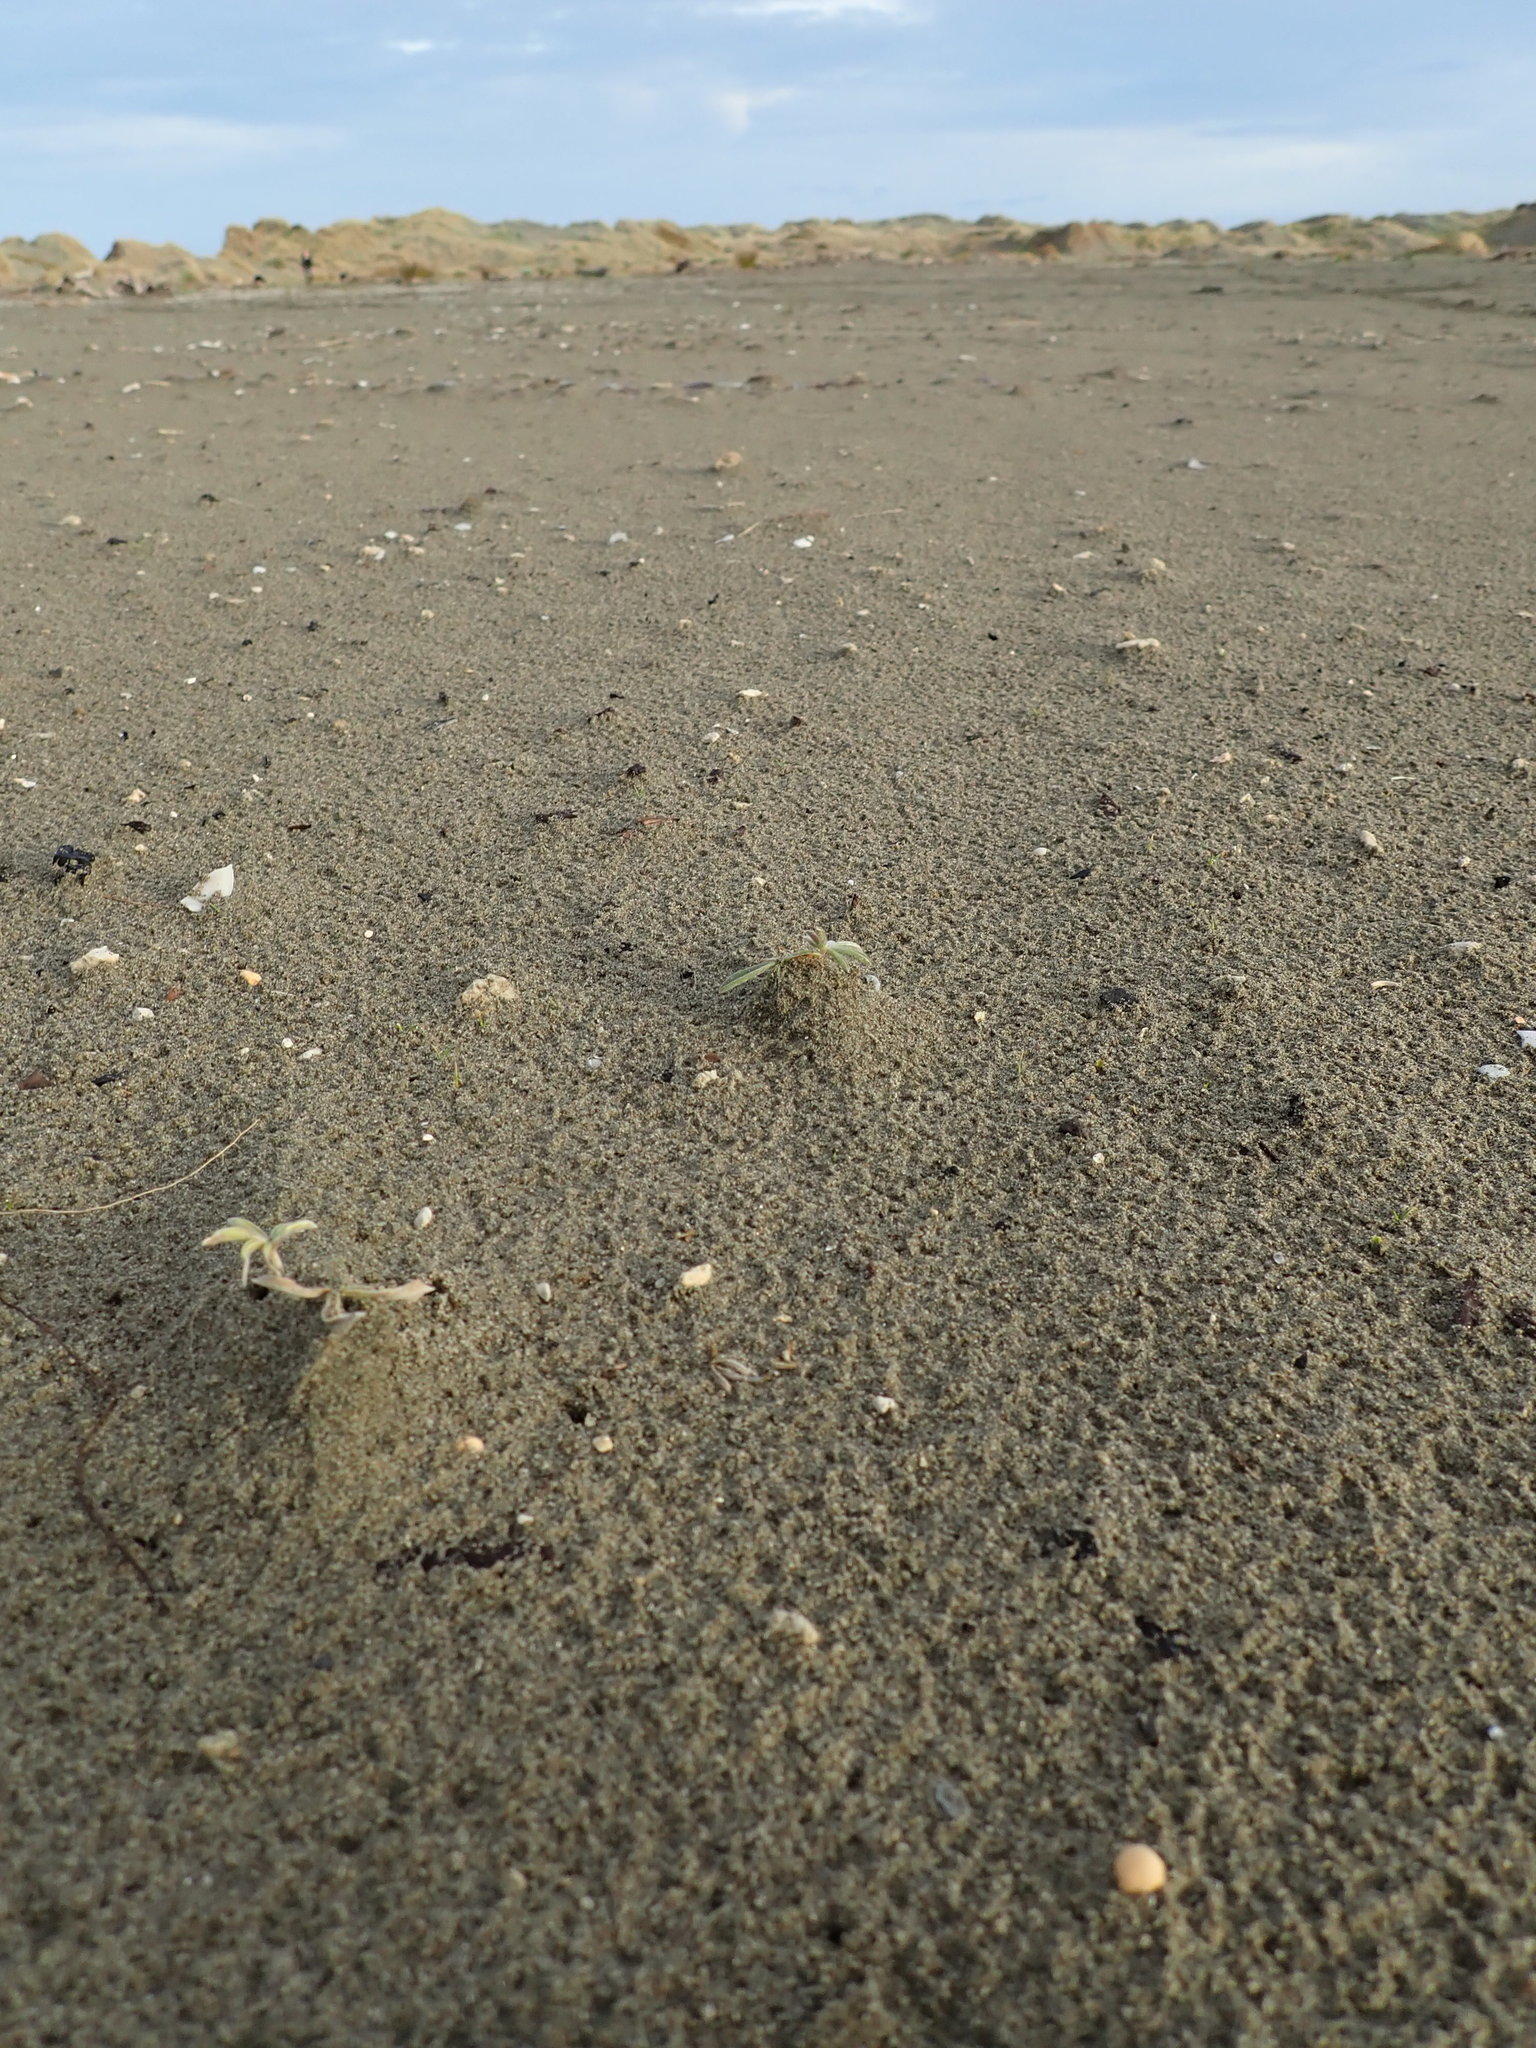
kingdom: Plantae
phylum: Tracheophyta
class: Magnoliopsida
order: Fabales
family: Fabaceae
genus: Lupinus
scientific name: Lupinus arboreus
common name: Yellow bush lupine
